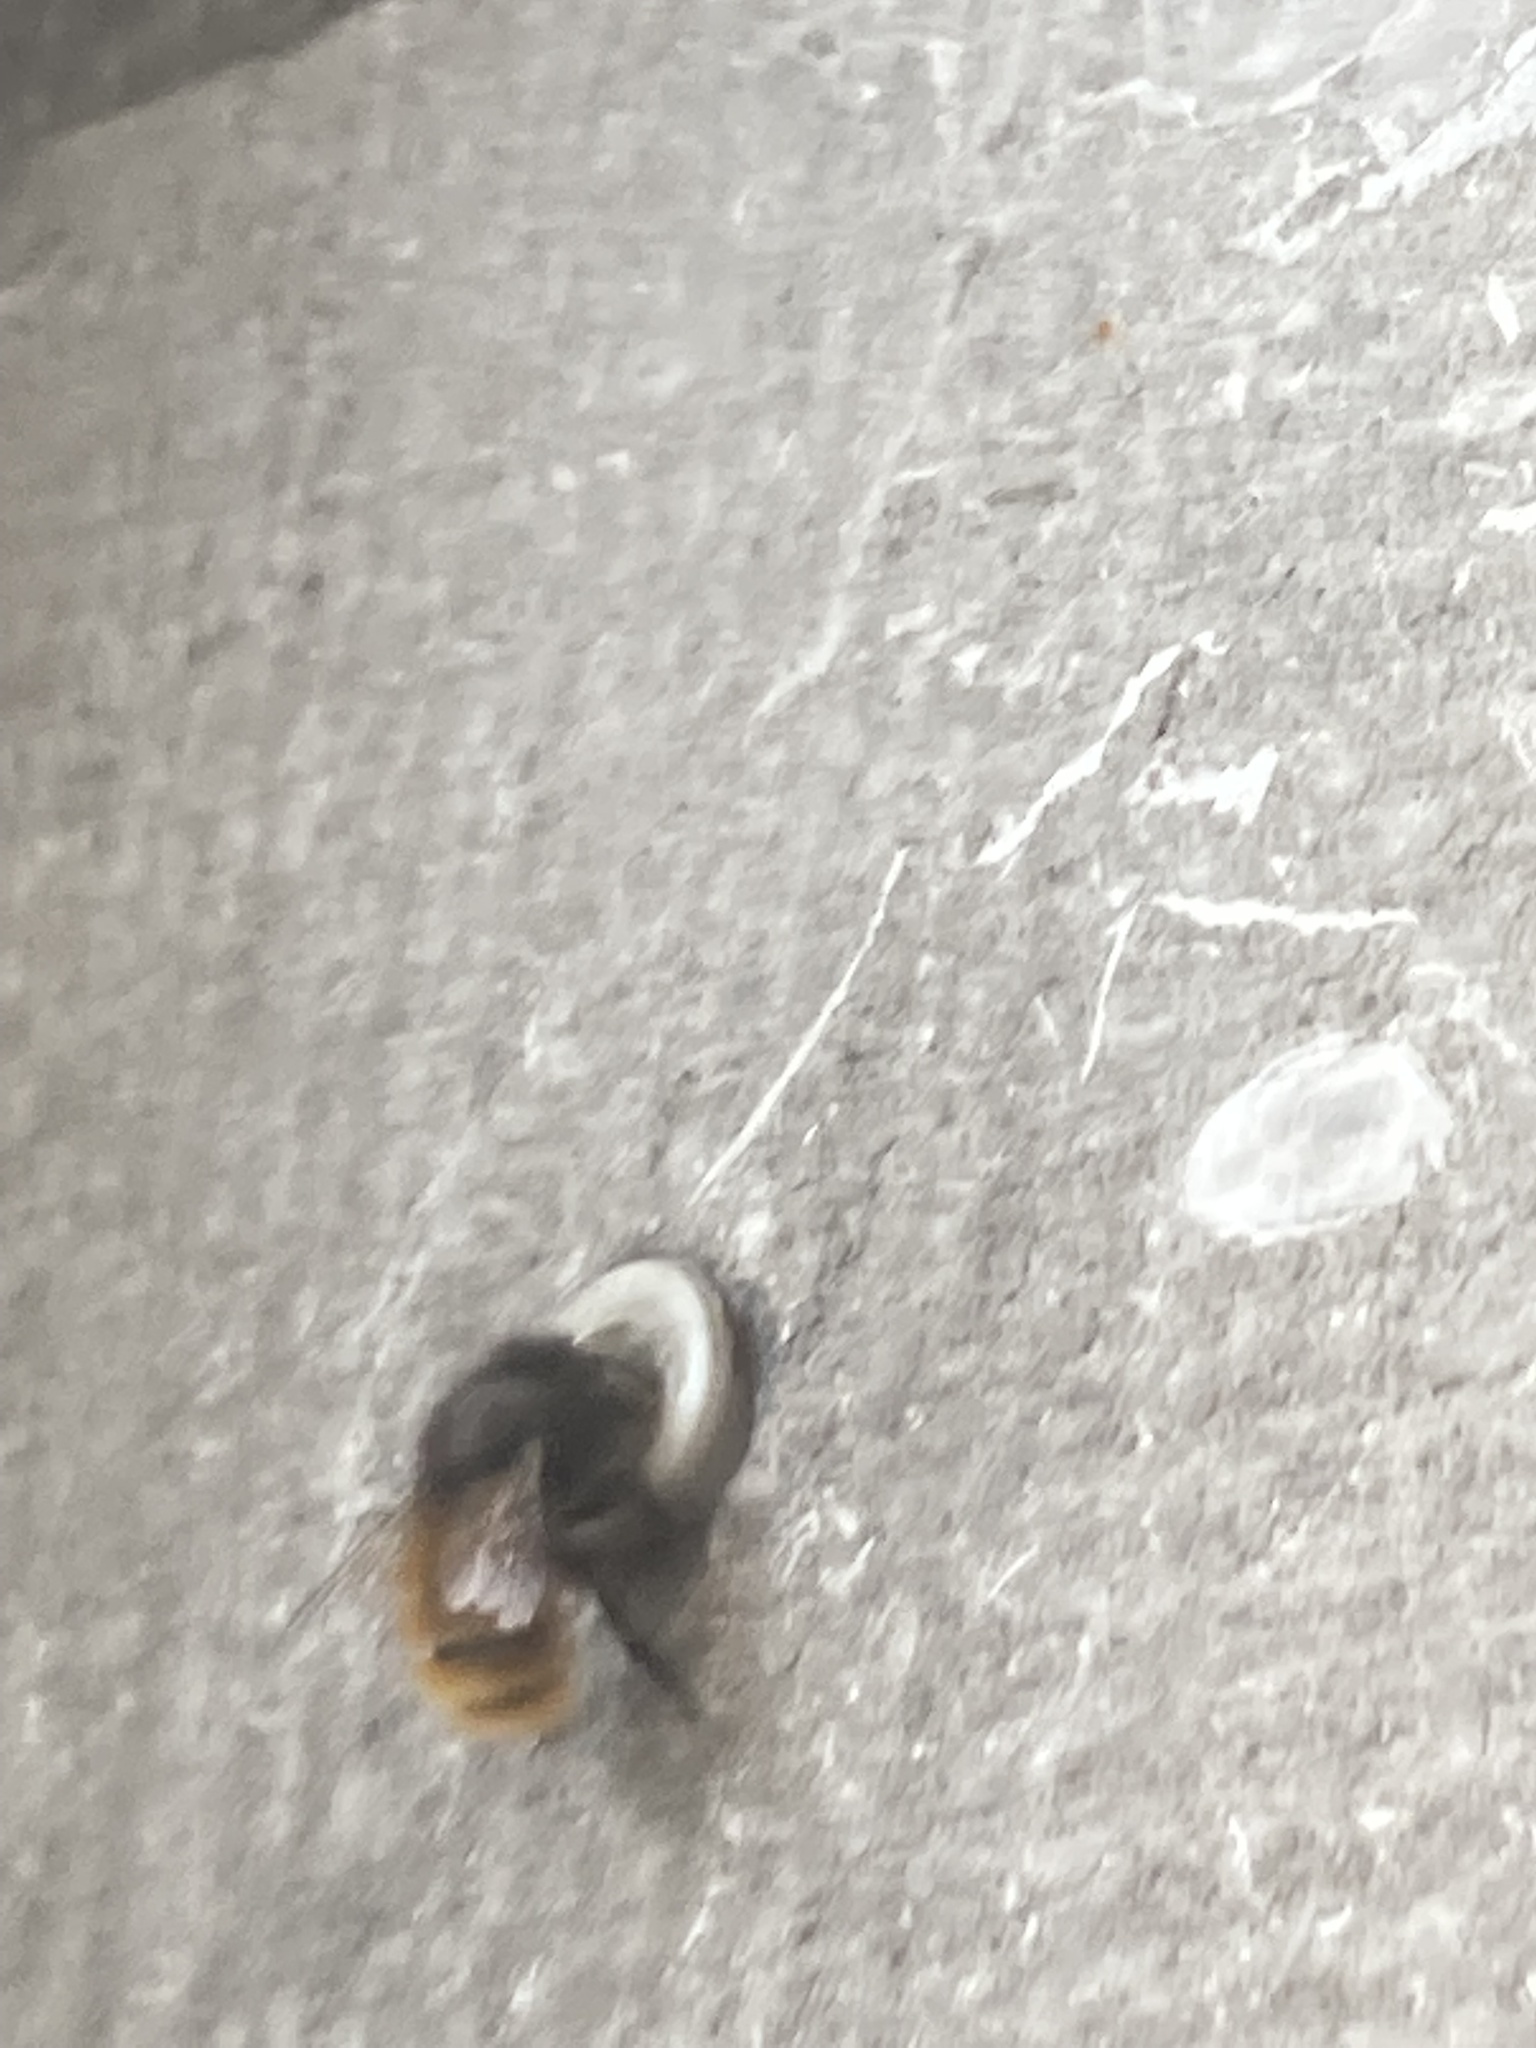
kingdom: Animalia
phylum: Arthropoda
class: Insecta
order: Hymenoptera
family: Megachilidae
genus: Osmia
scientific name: Osmia cornuta
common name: Mason bee
